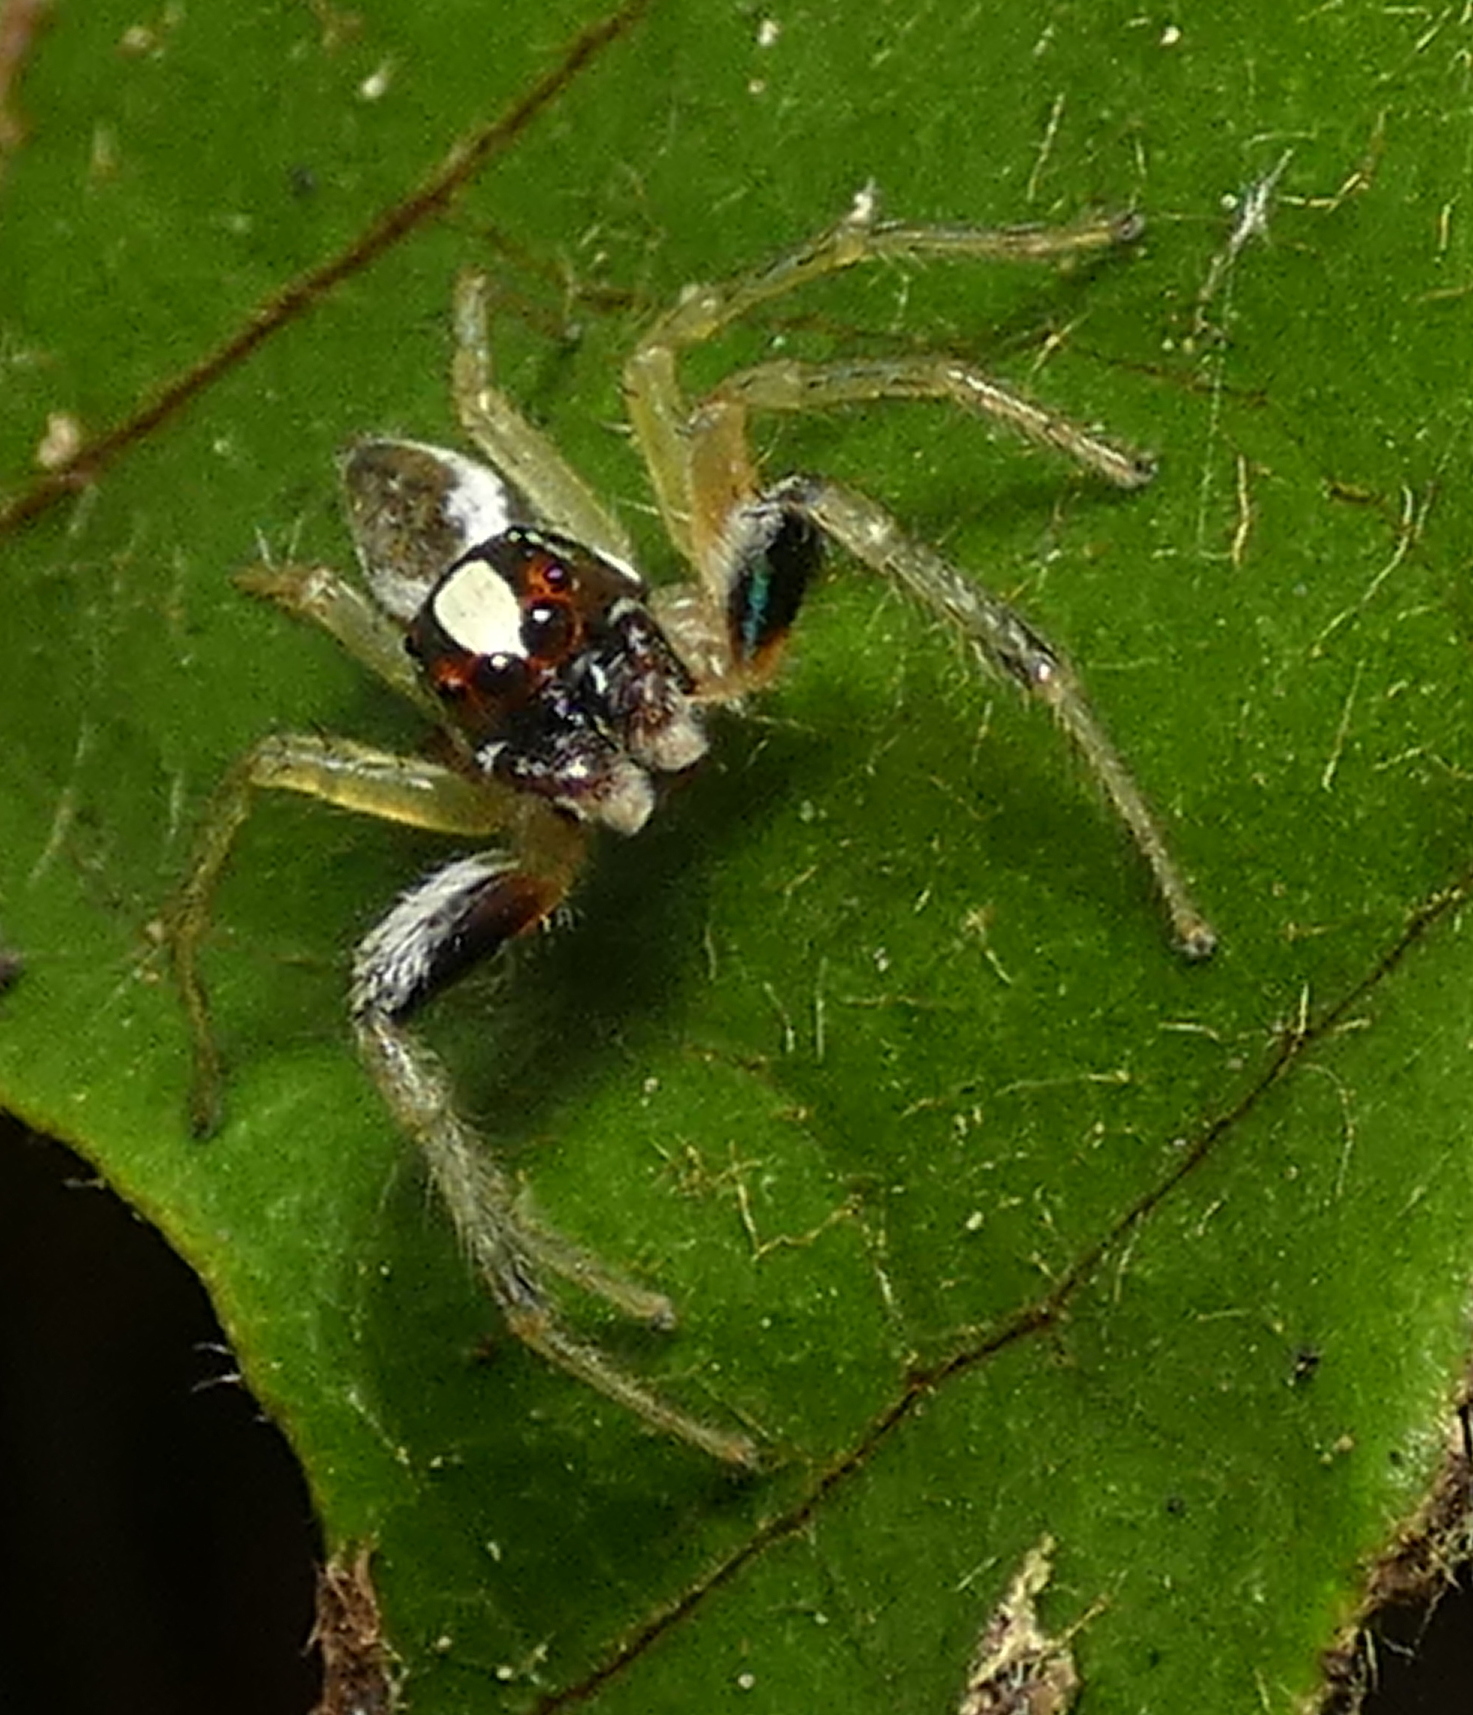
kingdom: Animalia
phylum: Arthropoda
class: Arachnida
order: Araneae
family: Salticidae
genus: Chira
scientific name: Chira spinosa
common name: Jumping spiders
